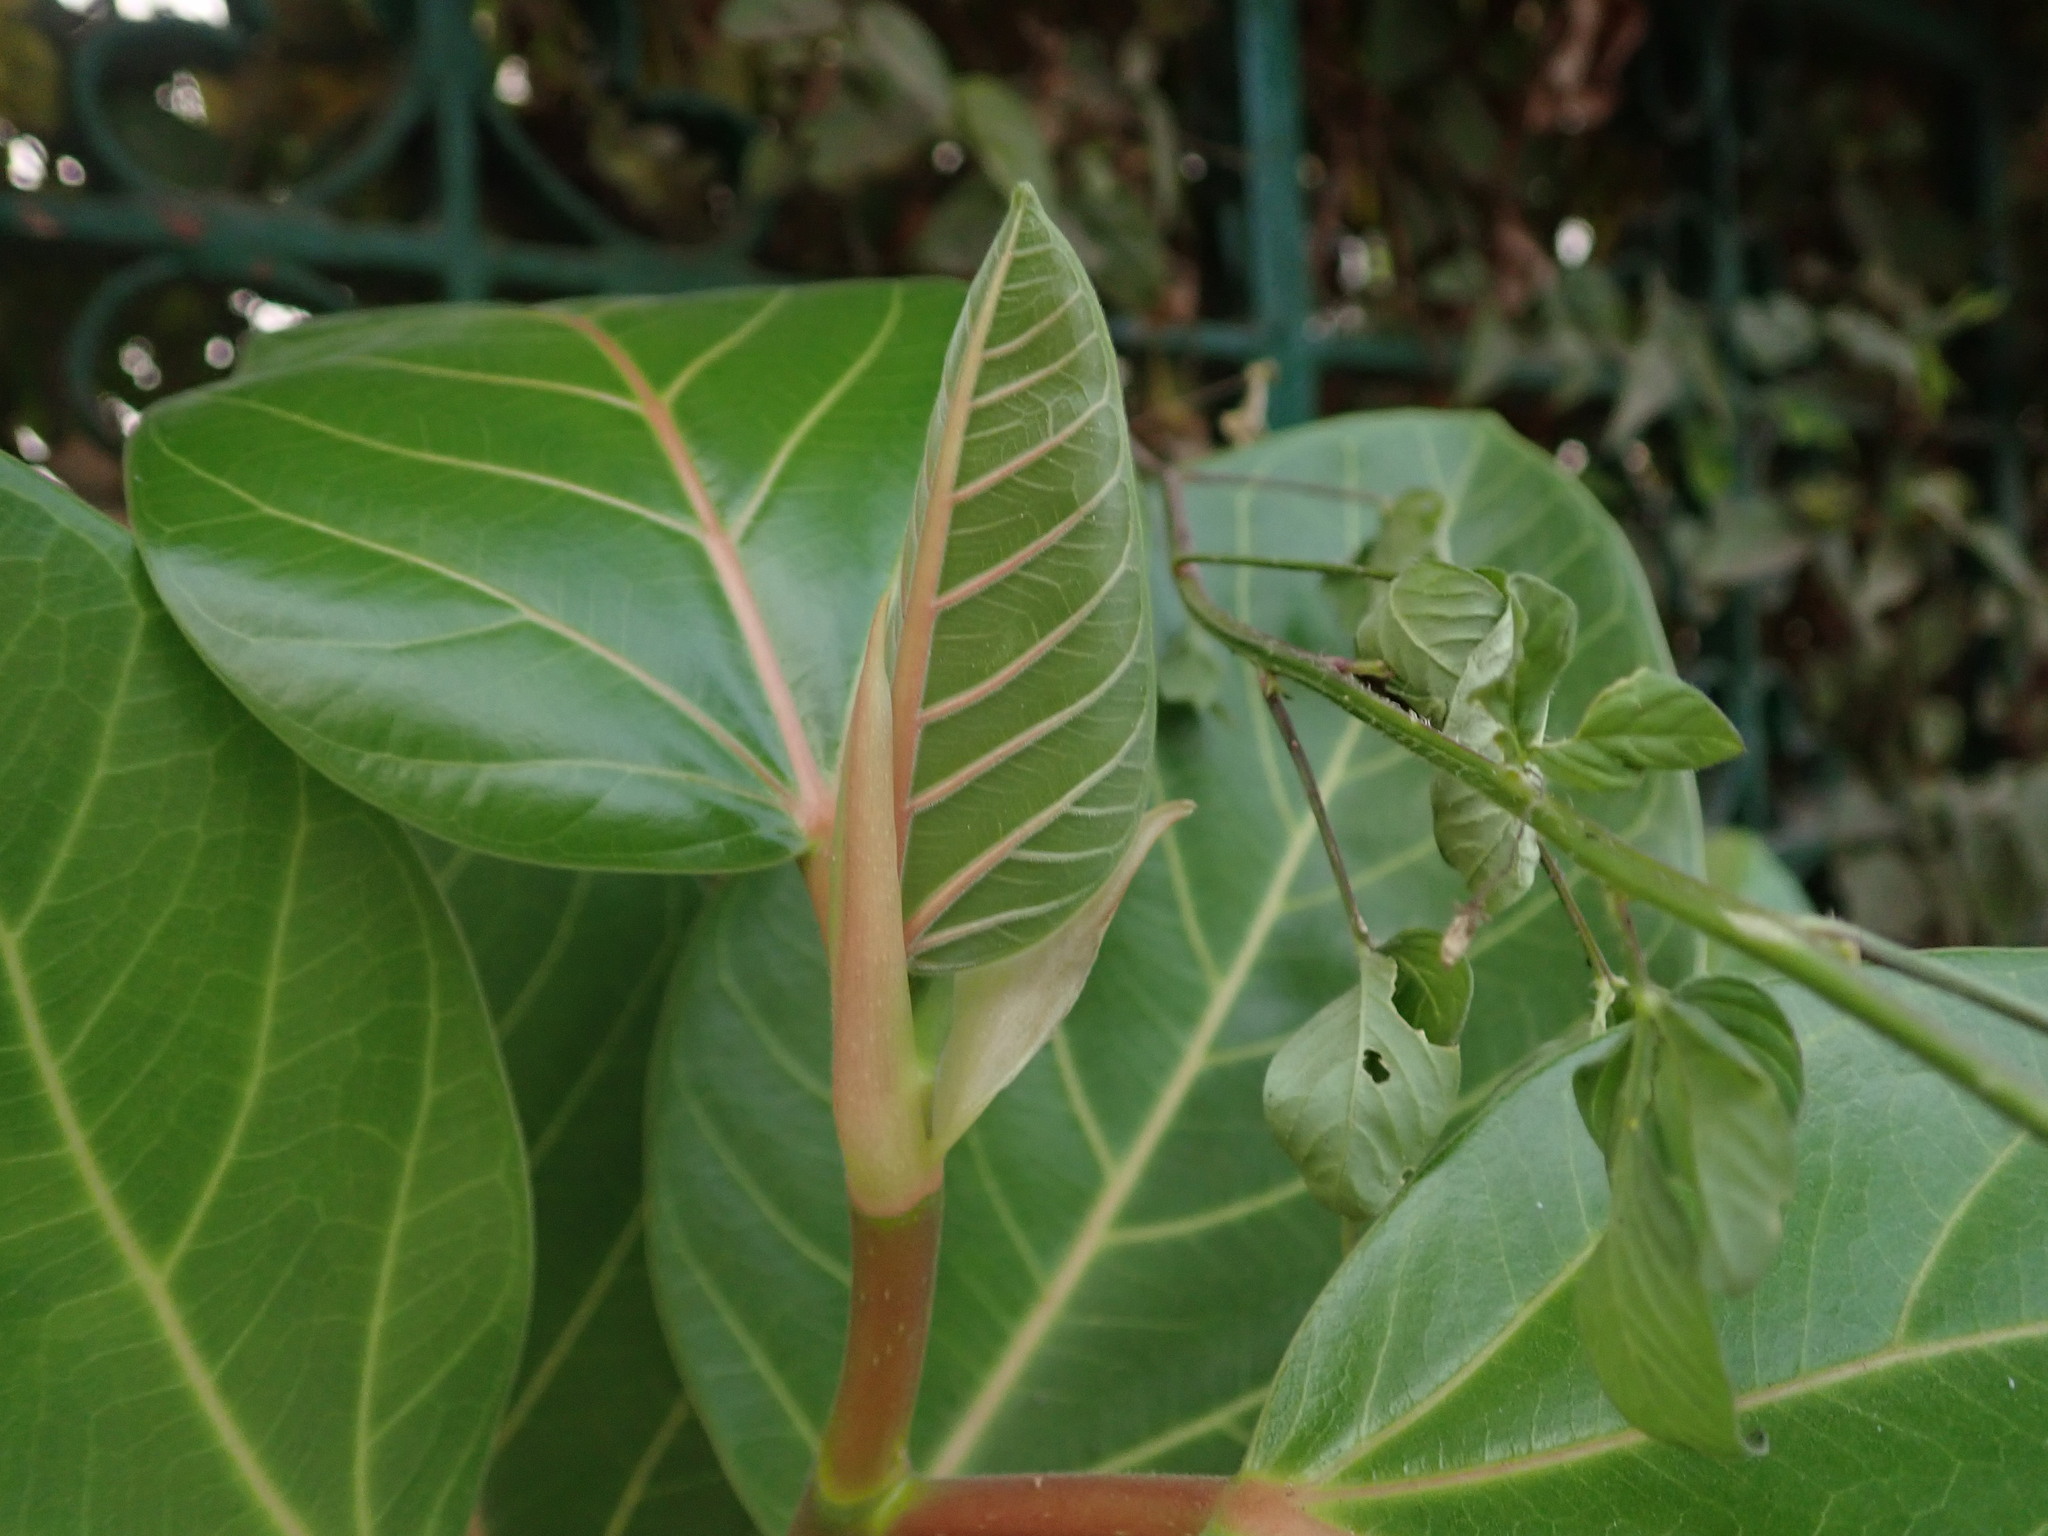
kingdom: Plantae
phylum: Tracheophyta
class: Magnoliopsida
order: Rosales
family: Moraceae
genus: Ficus
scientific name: Ficus benghalensis
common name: Indian banyan
